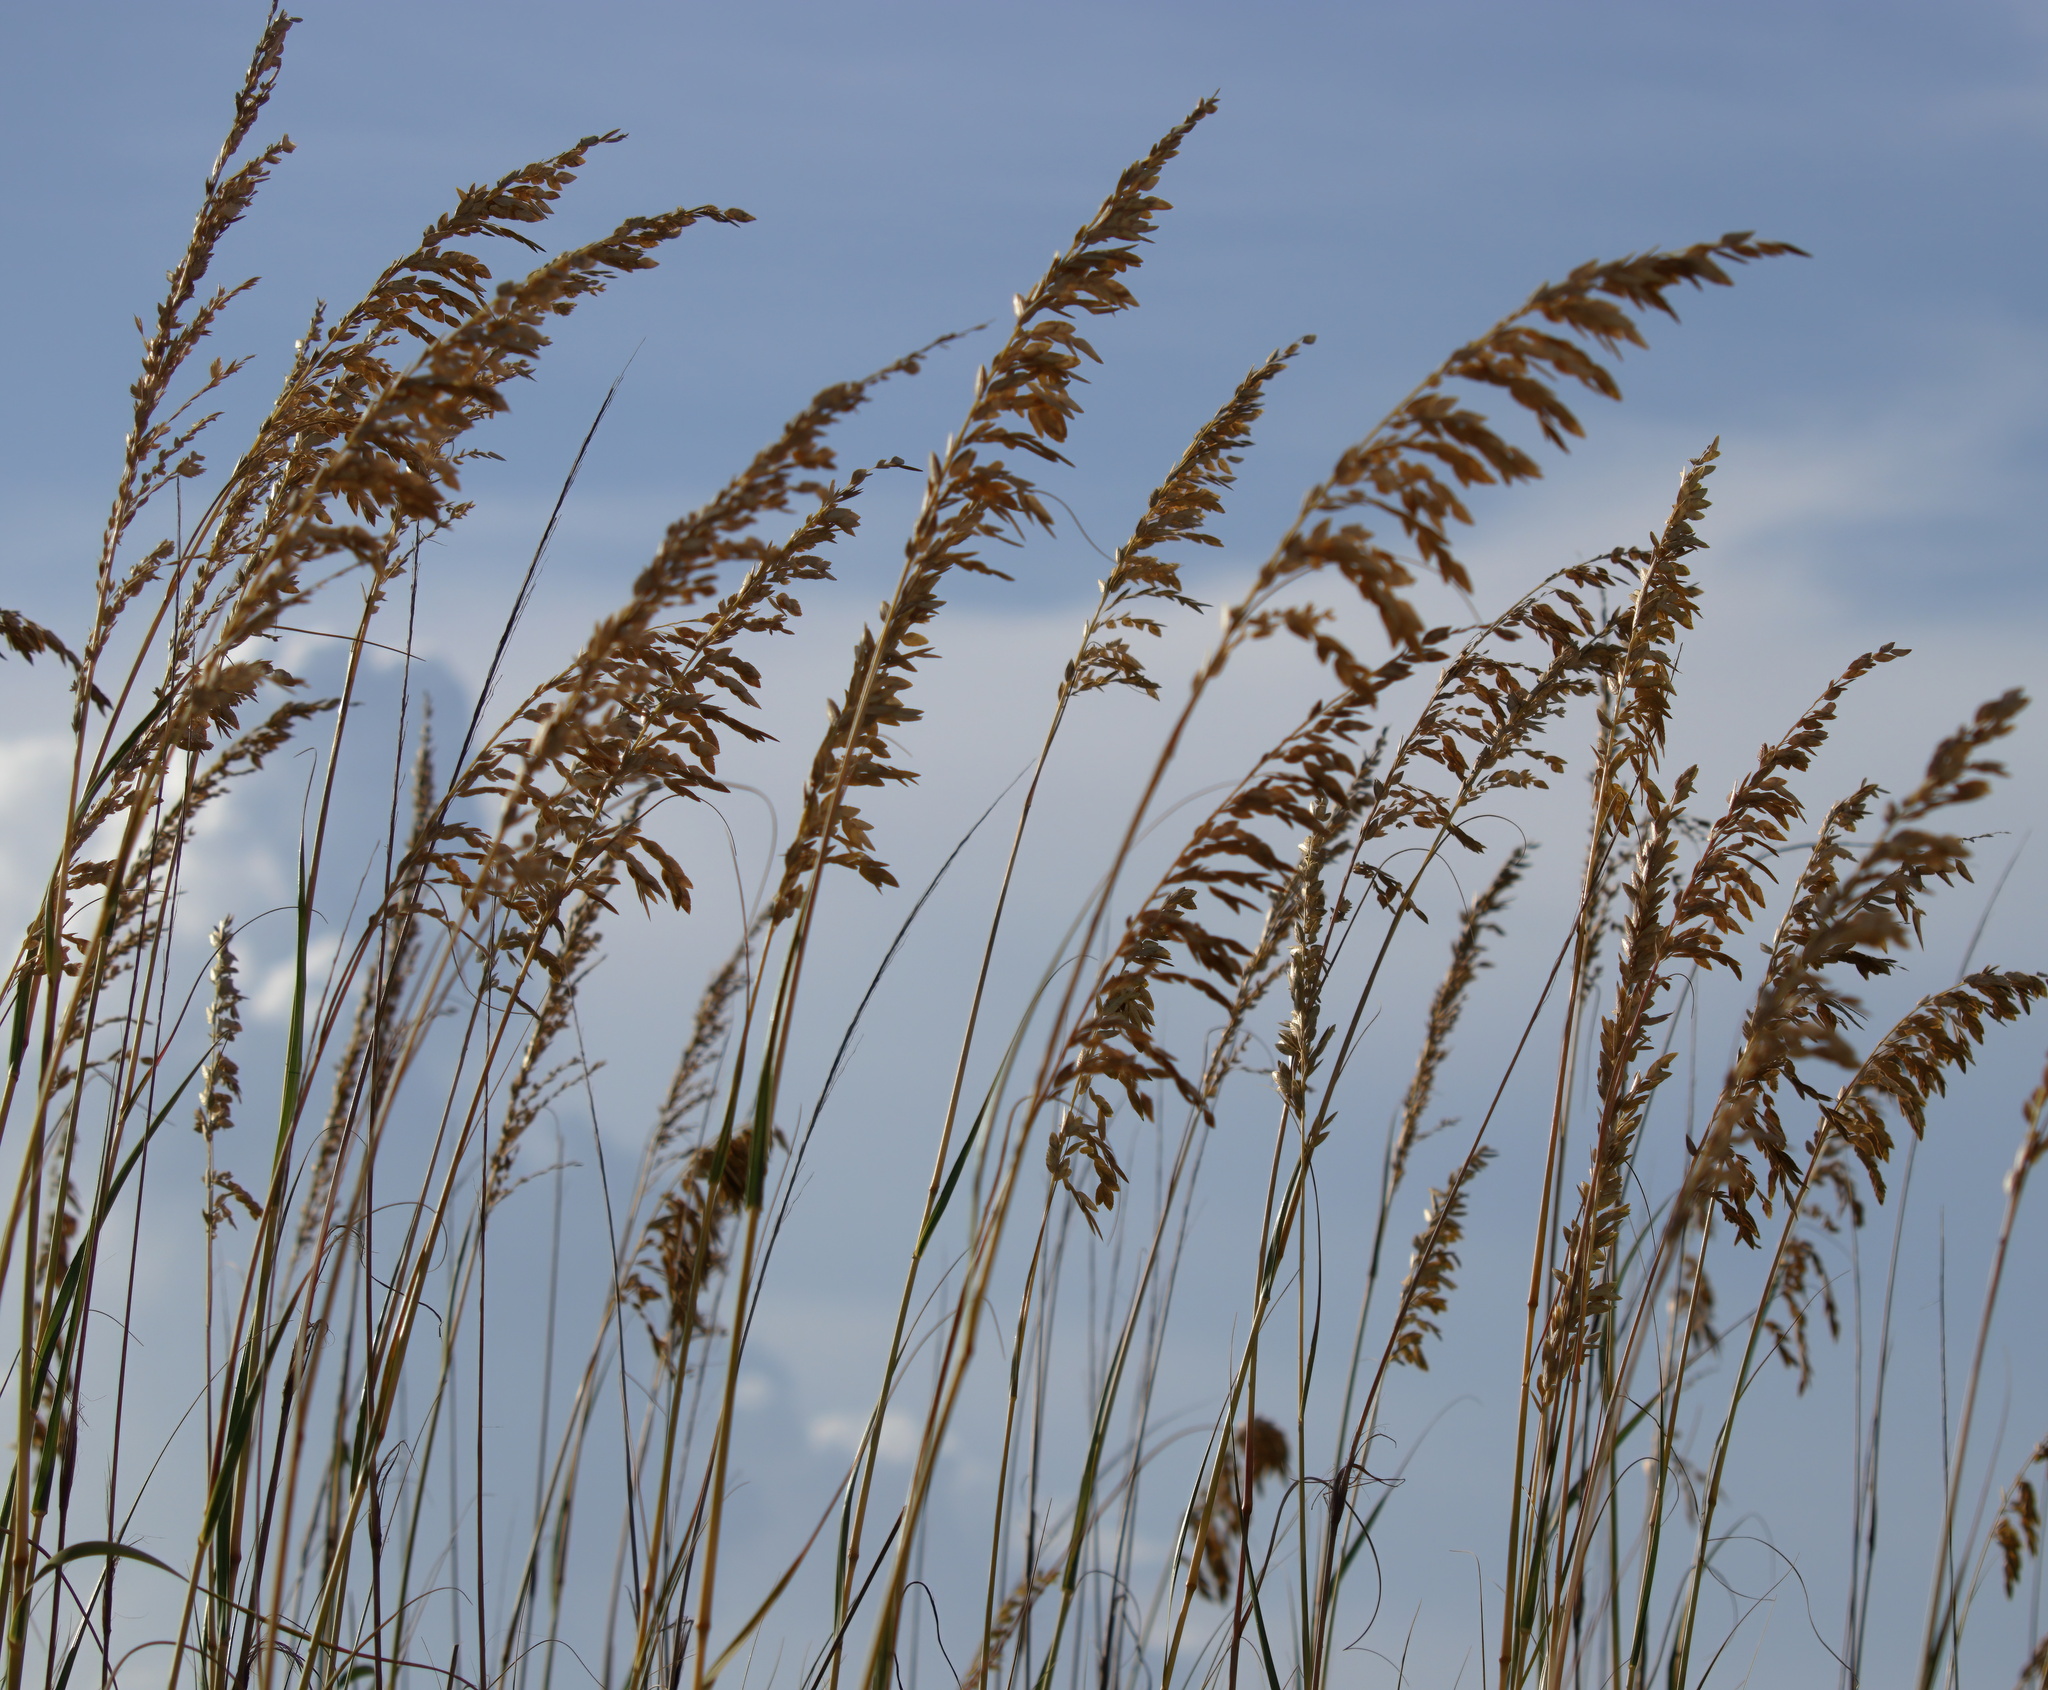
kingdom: Plantae
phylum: Tracheophyta
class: Liliopsida
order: Poales
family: Poaceae
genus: Uniola
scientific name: Uniola paniculata
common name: Seaside-oats
